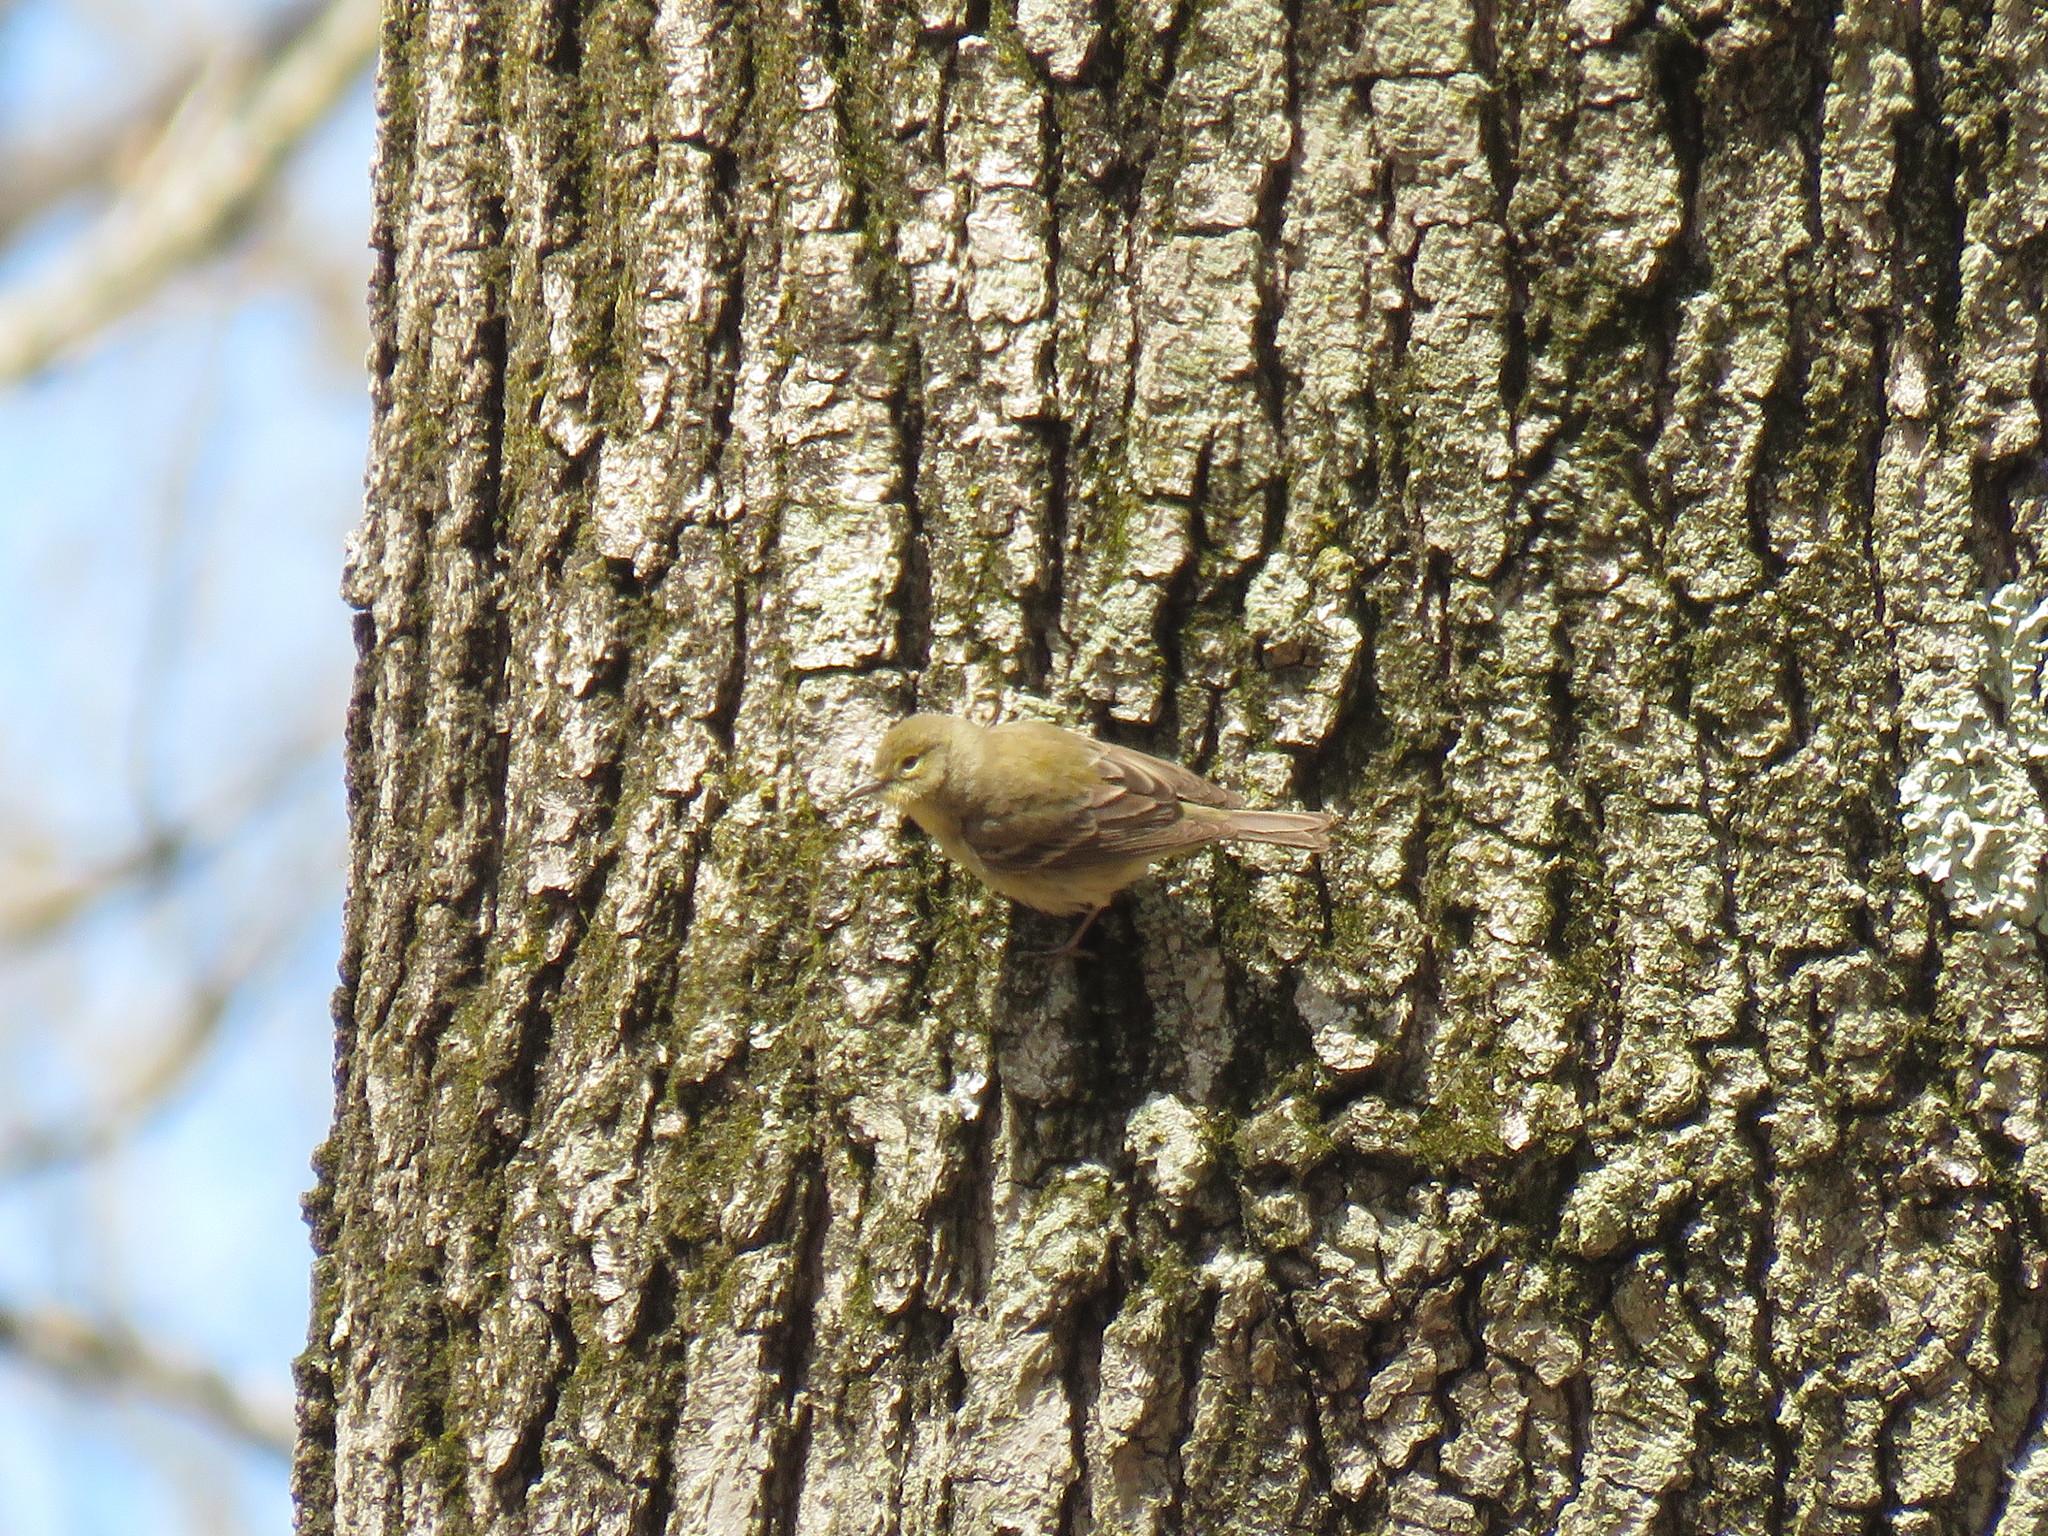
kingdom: Animalia
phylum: Chordata
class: Aves
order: Passeriformes
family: Parulidae
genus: Setophaga
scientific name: Setophaga pinus
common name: Pine warbler
